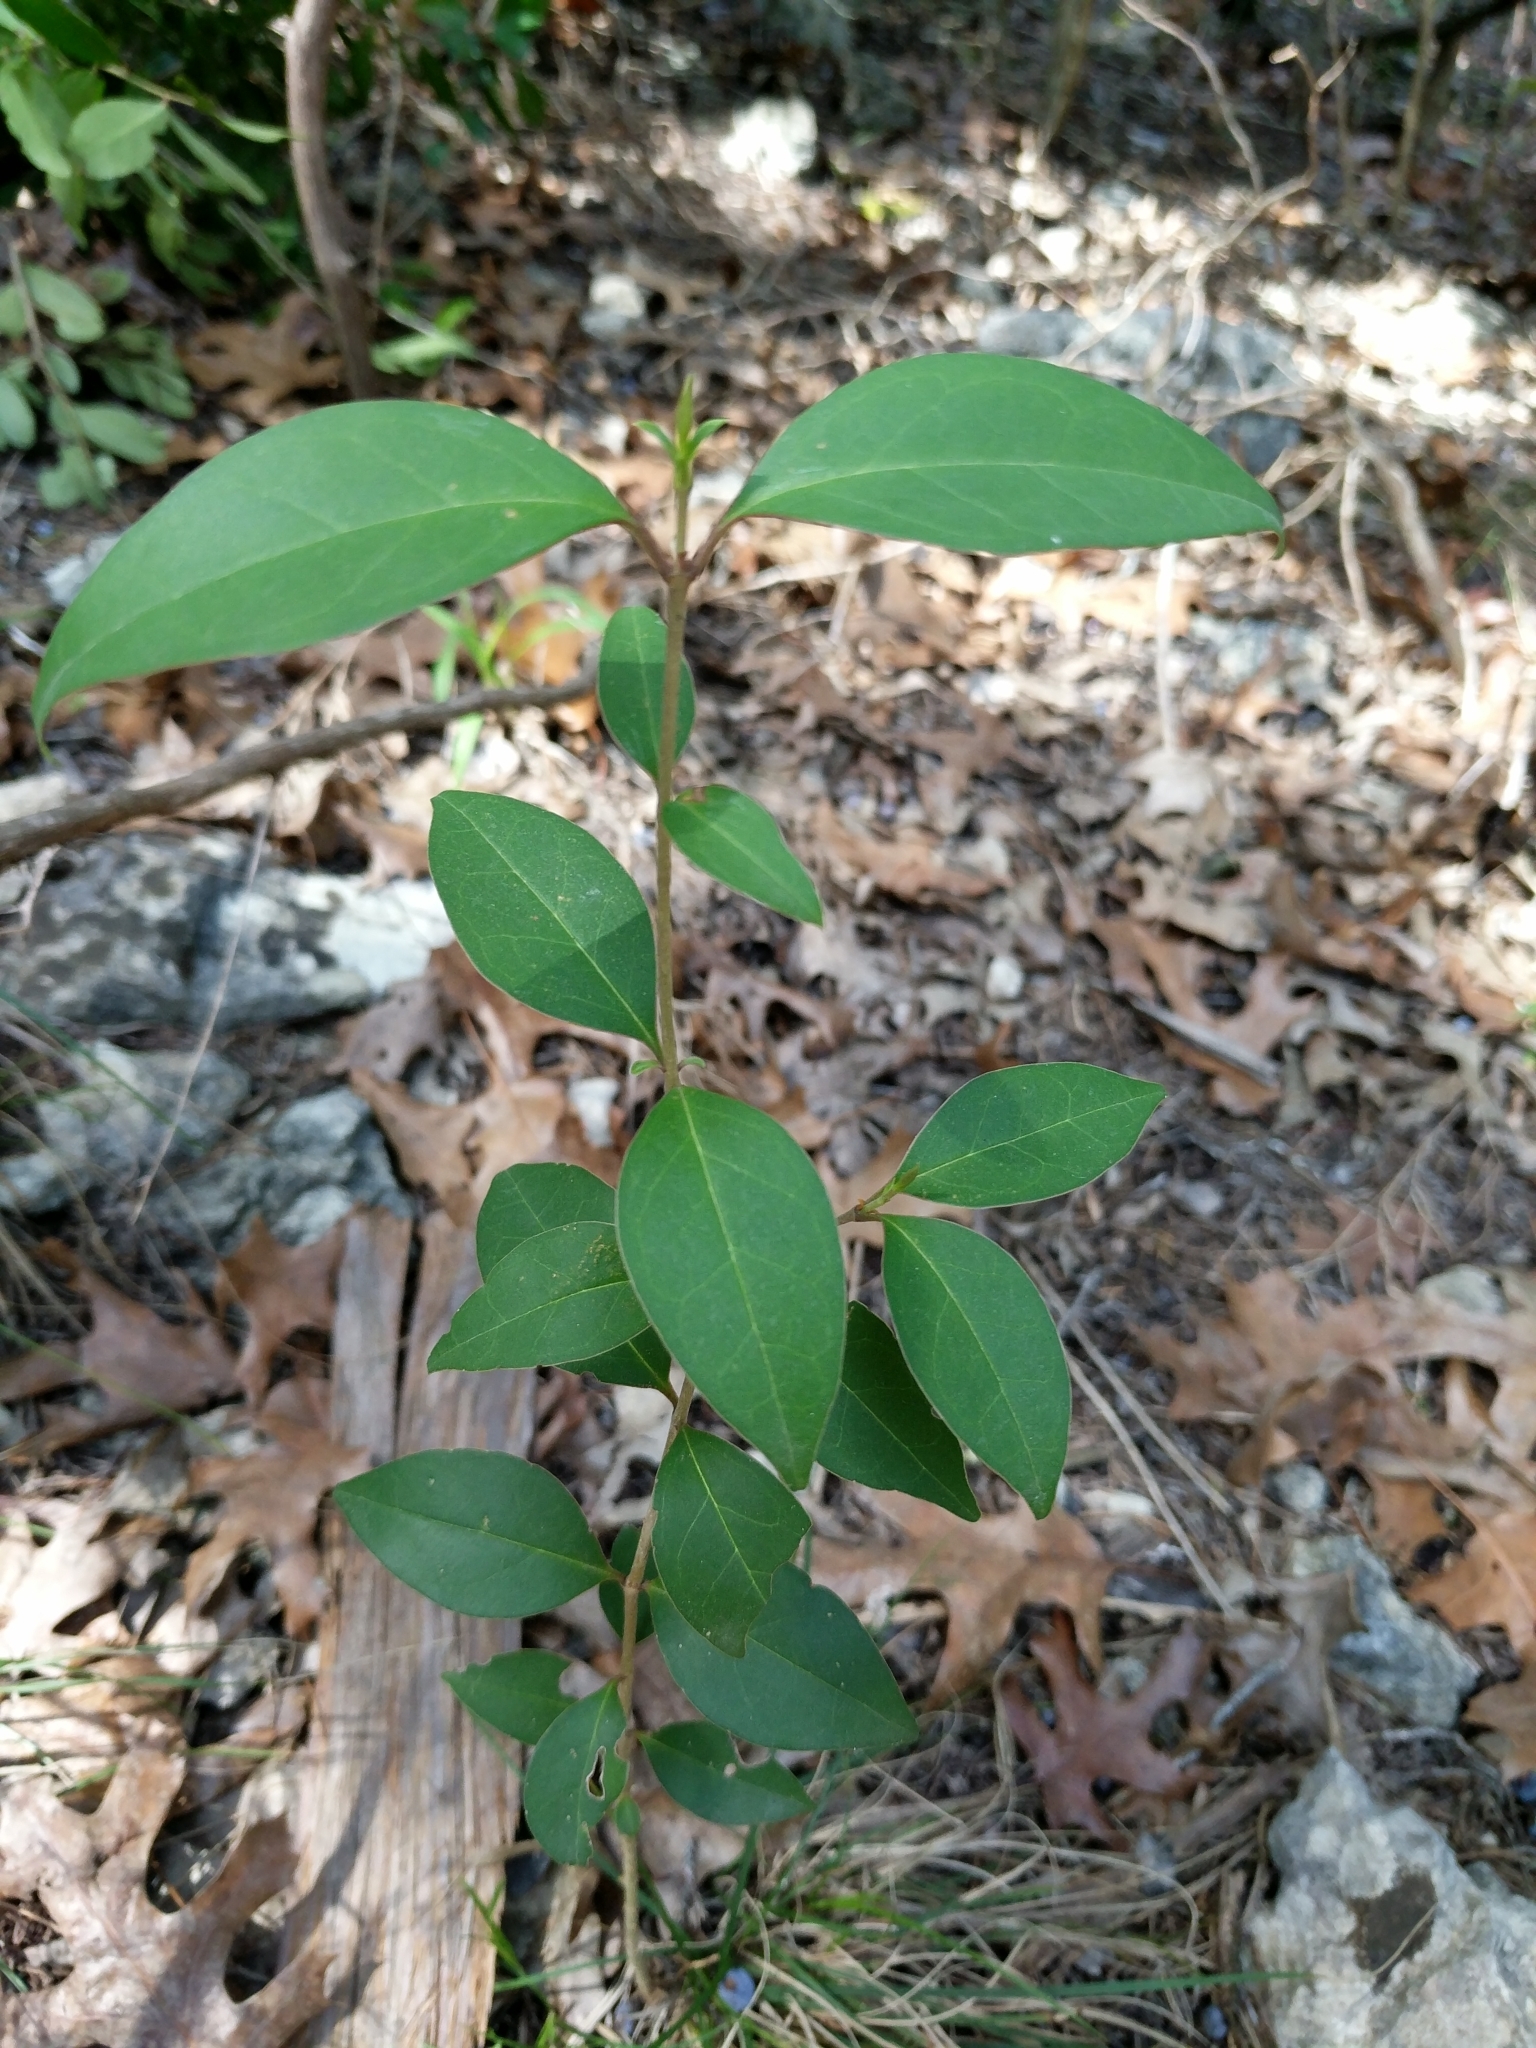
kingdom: Plantae
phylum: Tracheophyta
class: Magnoliopsida
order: Lamiales
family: Oleaceae
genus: Ligustrum
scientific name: Ligustrum lucidum
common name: Glossy privet
